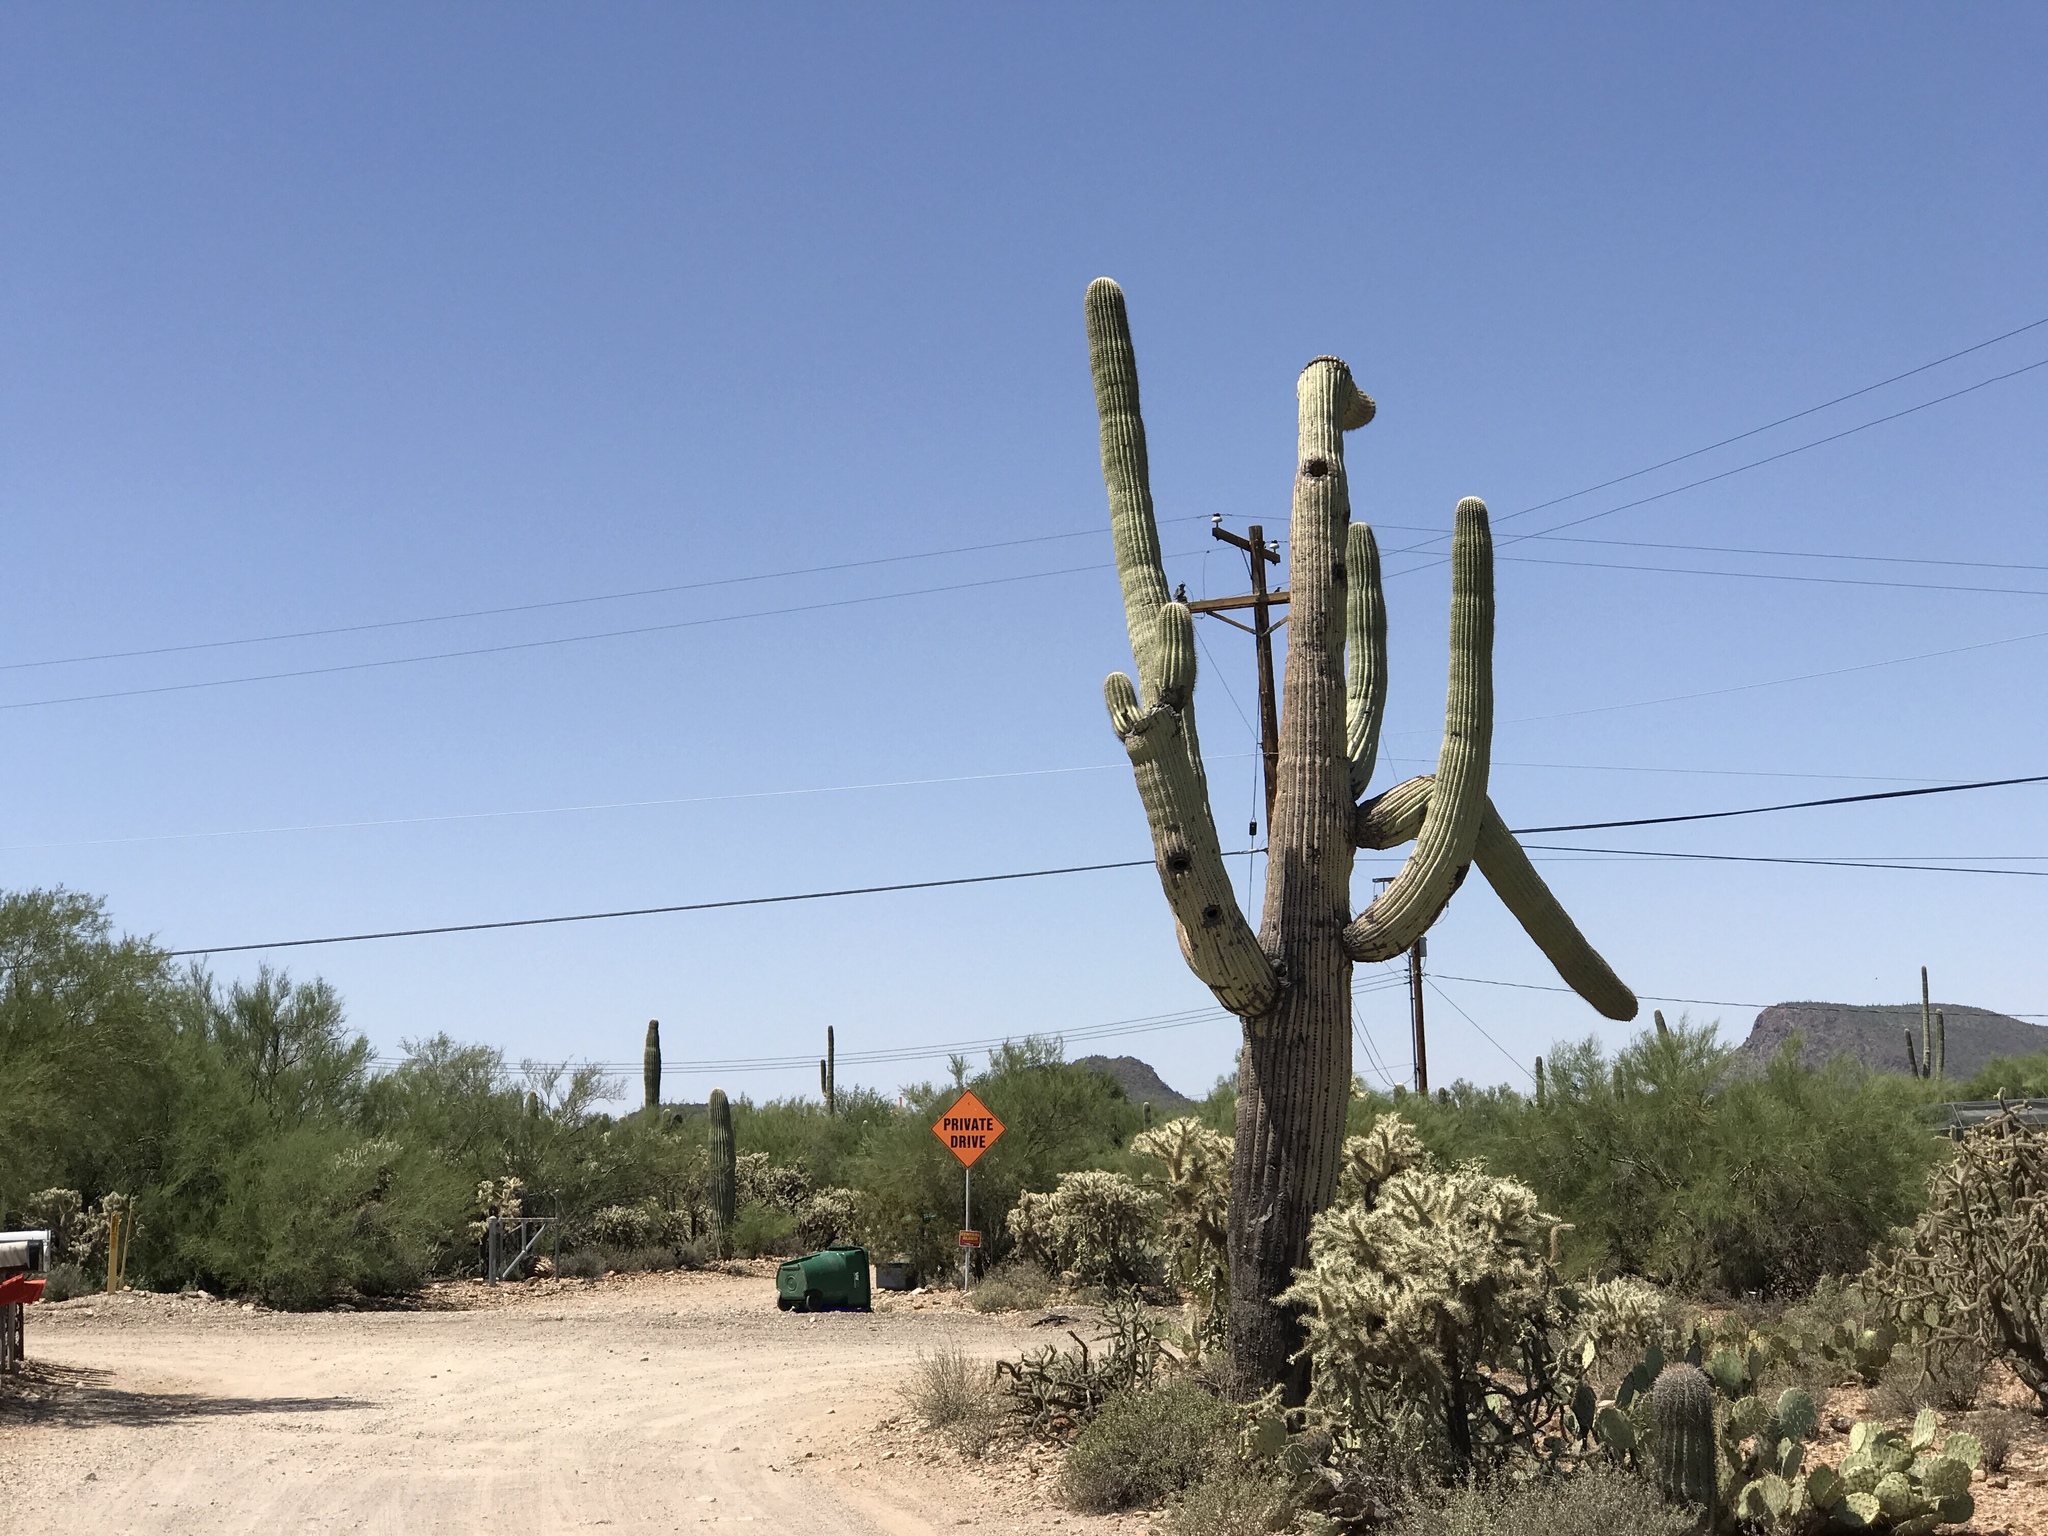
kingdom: Plantae
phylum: Tracheophyta
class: Magnoliopsida
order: Caryophyllales
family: Cactaceae
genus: Carnegiea
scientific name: Carnegiea gigantea
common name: Saguaro
